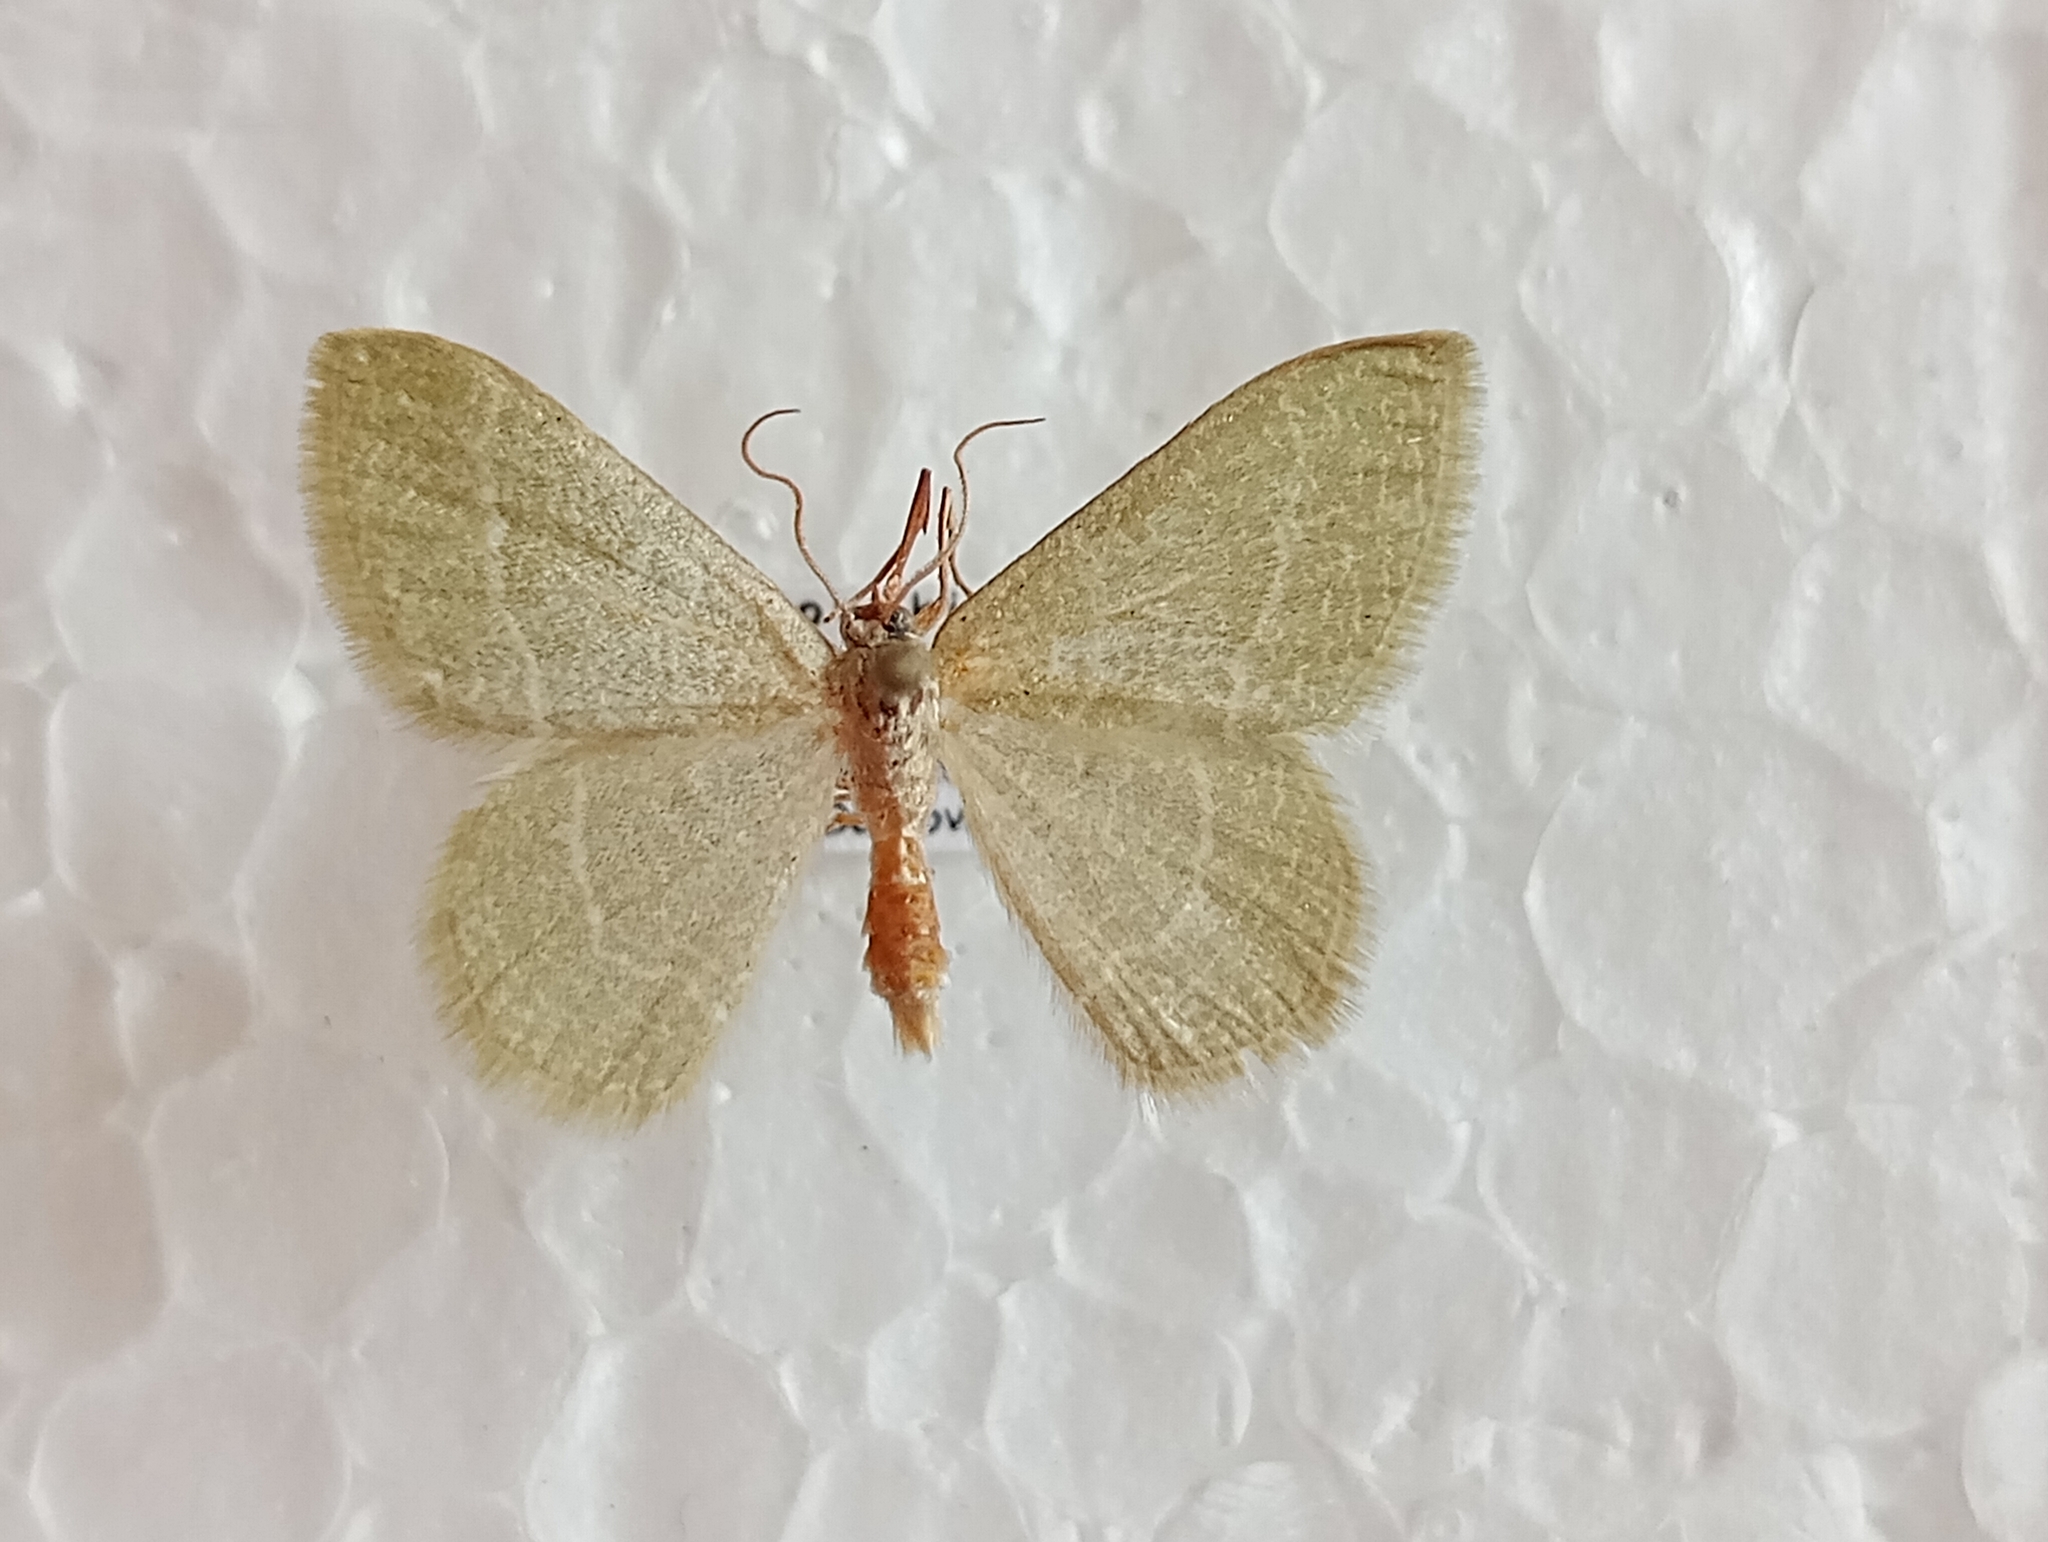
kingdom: Animalia
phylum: Arthropoda
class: Insecta
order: Lepidoptera
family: Geometridae
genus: Chlorissa
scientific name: Chlorissa etruscaria
